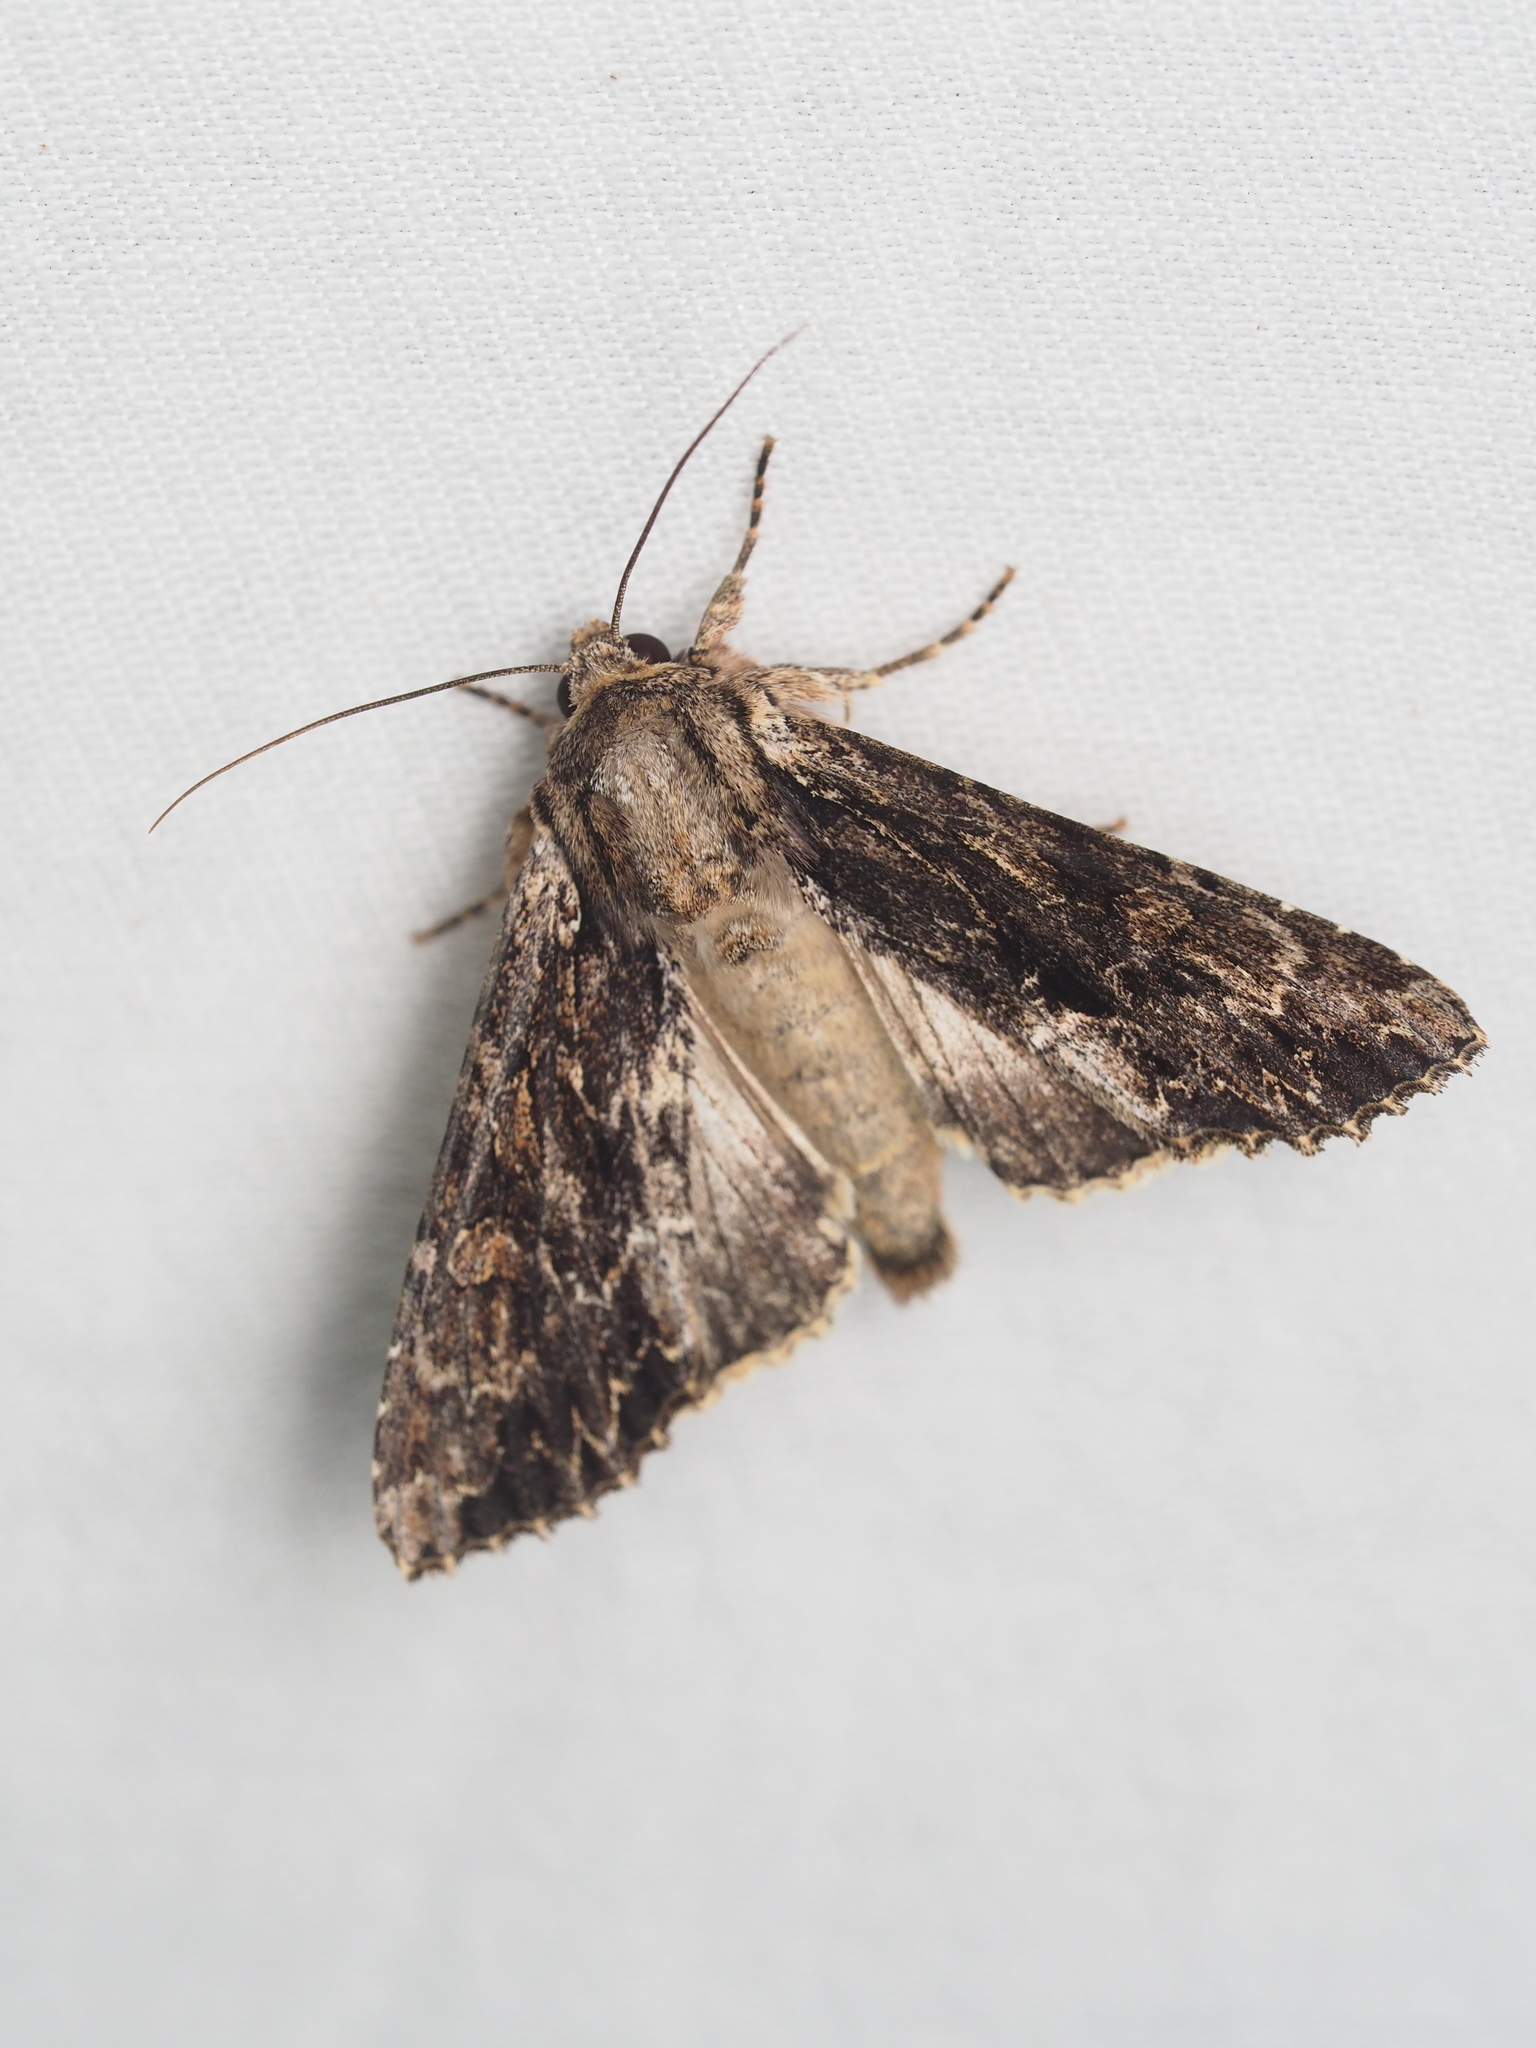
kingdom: Animalia
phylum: Arthropoda
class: Insecta
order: Lepidoptera
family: Noctuidae
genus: Apamea
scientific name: Apamea monoglypha
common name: Dark arches
